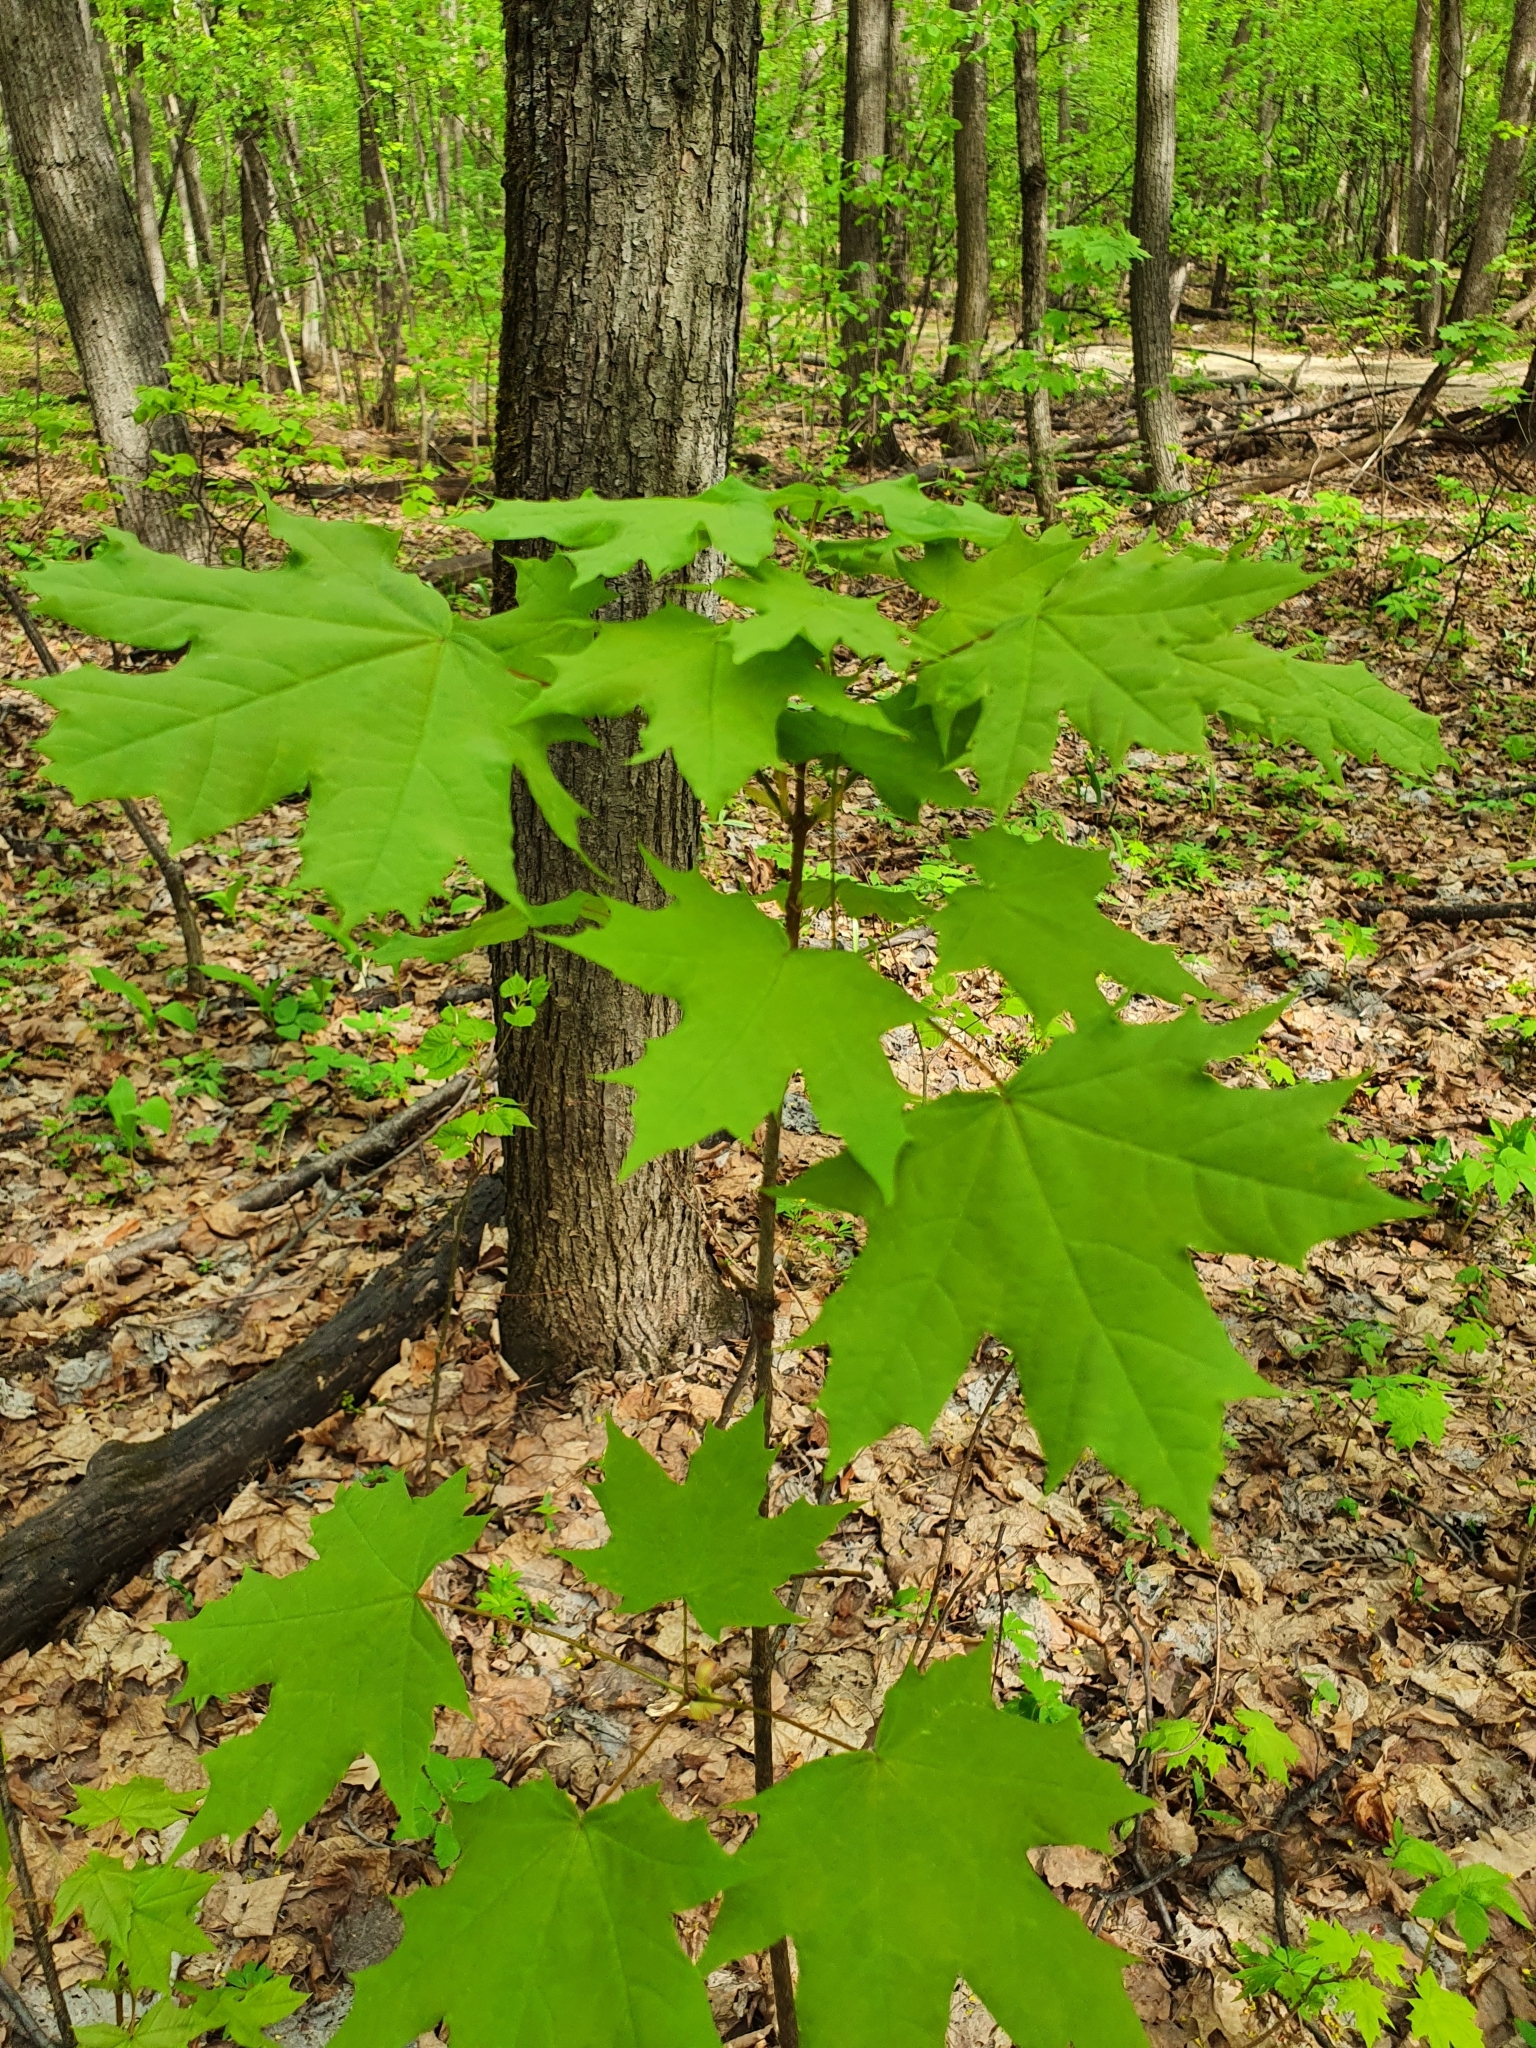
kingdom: Plantae
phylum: Tracheophyta
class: Magnoliopsida
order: Sapindales
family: Sapindaceae
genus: Acer
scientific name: Acer platanoides
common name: Norway maple
